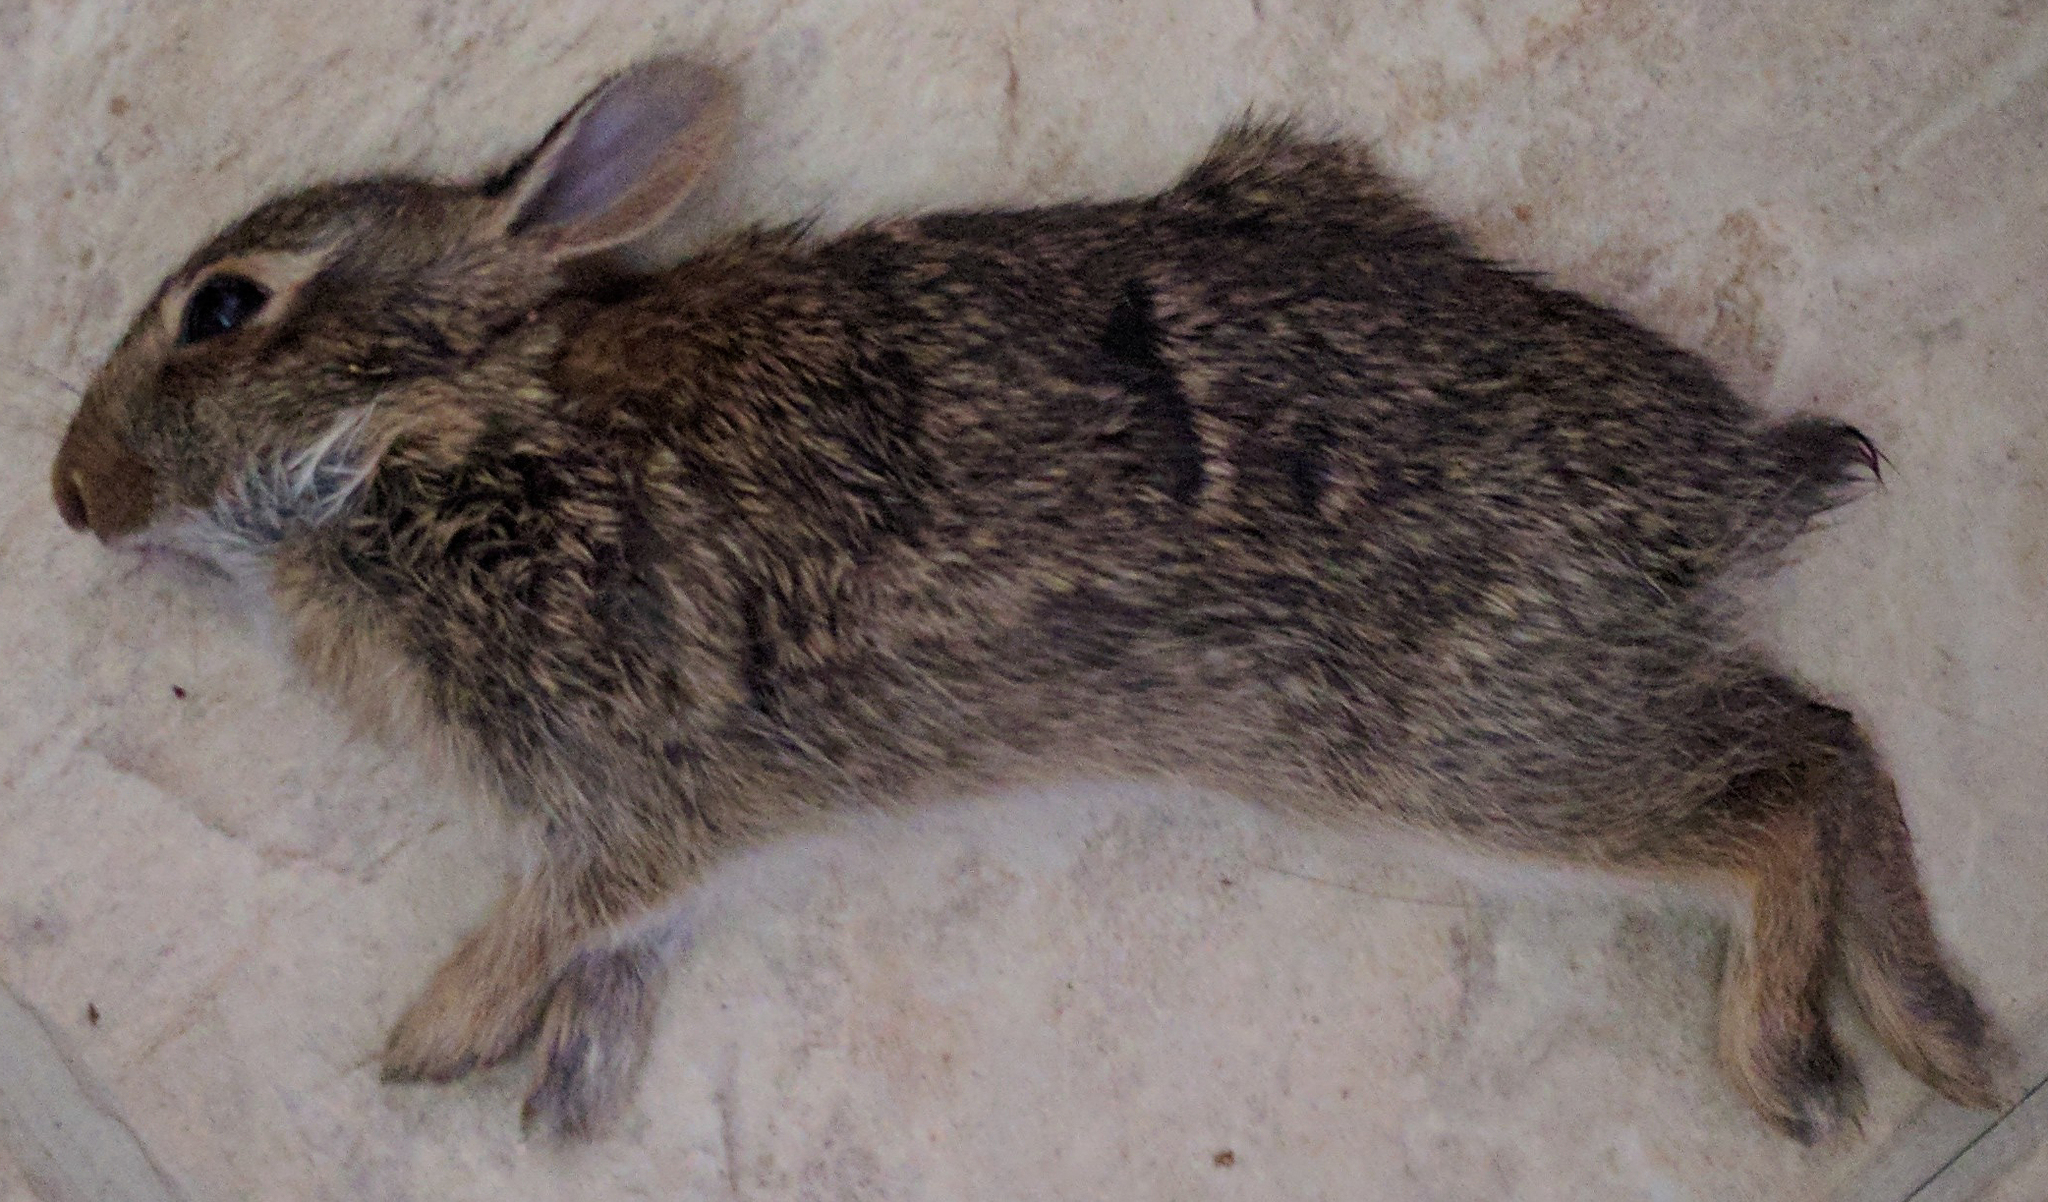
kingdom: Animalia
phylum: Chordata
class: Mammalia
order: Lagomorpha
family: Leporidae
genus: Sylvilagus
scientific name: Sylvilagus floridanus
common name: Eastern cottontail
